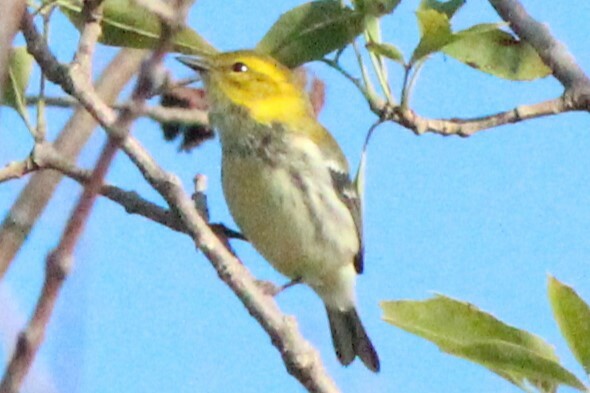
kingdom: Animalia
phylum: Chordata
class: Aves
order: Passeriformes
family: Parulidae
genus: Setophaga
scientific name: Setophaga virens
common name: Black-throated green warbler
